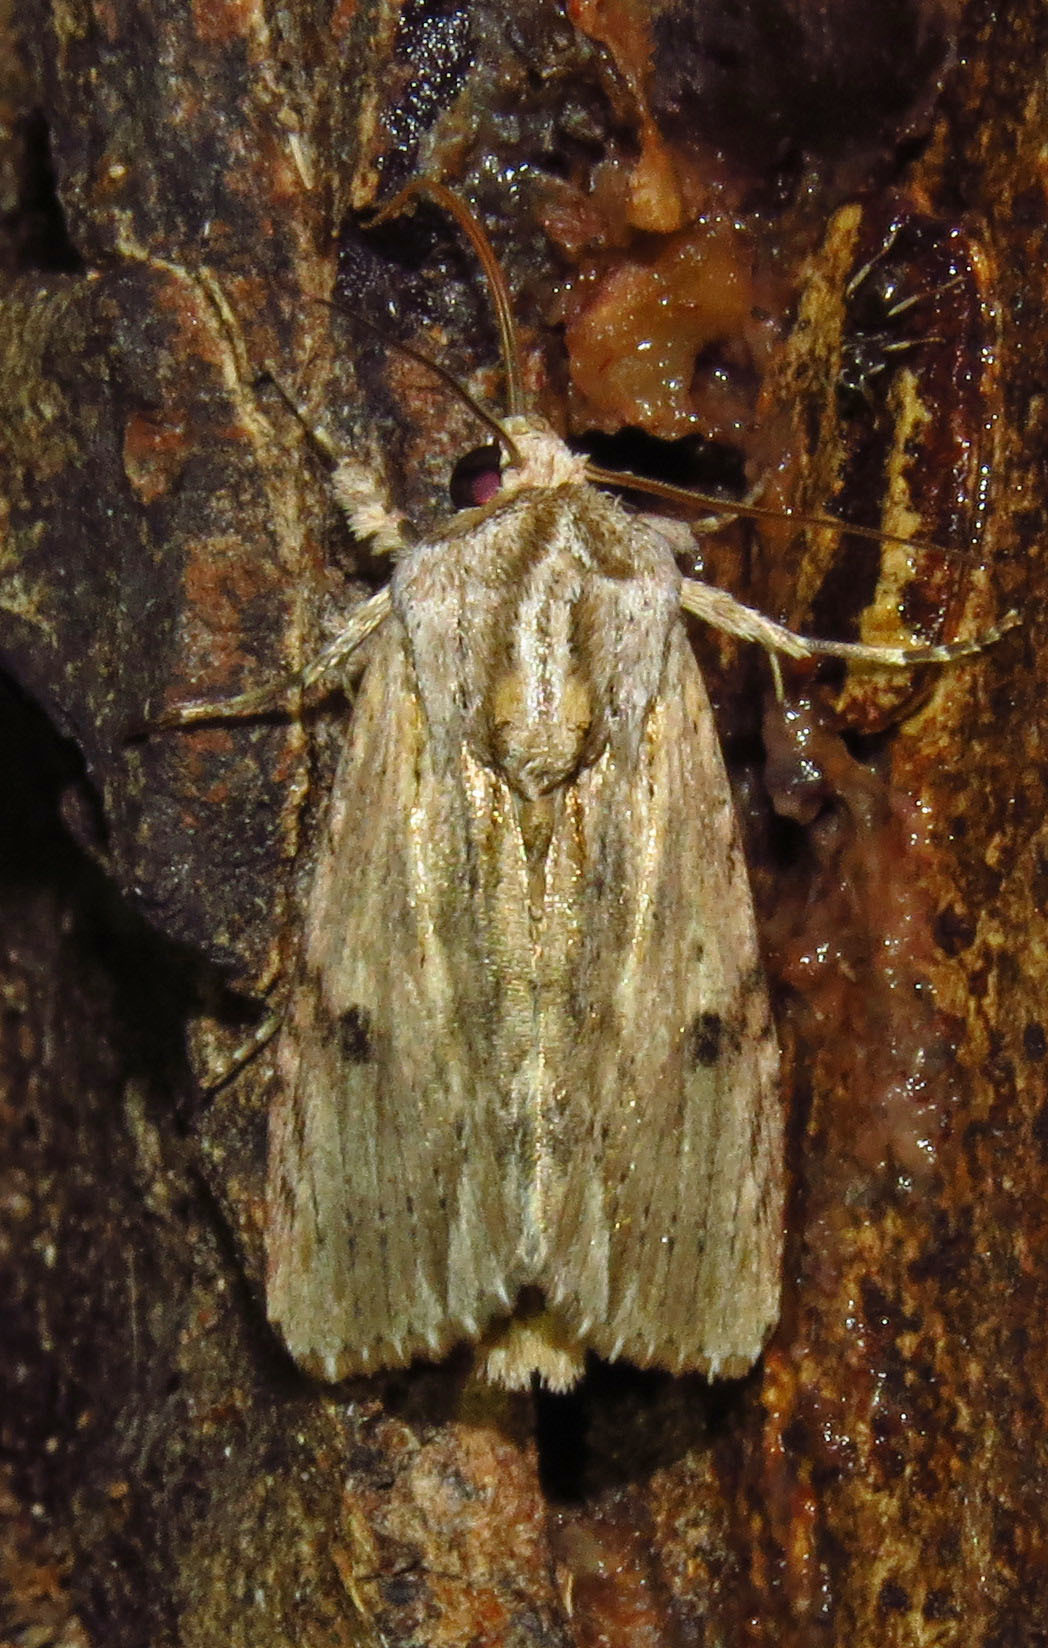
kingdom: Animalia
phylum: Arthropoda
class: Insecta
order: Lepidoptera
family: Noctuidae
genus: Spodoptera
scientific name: Spodoptera eridania
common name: Southern army worm
